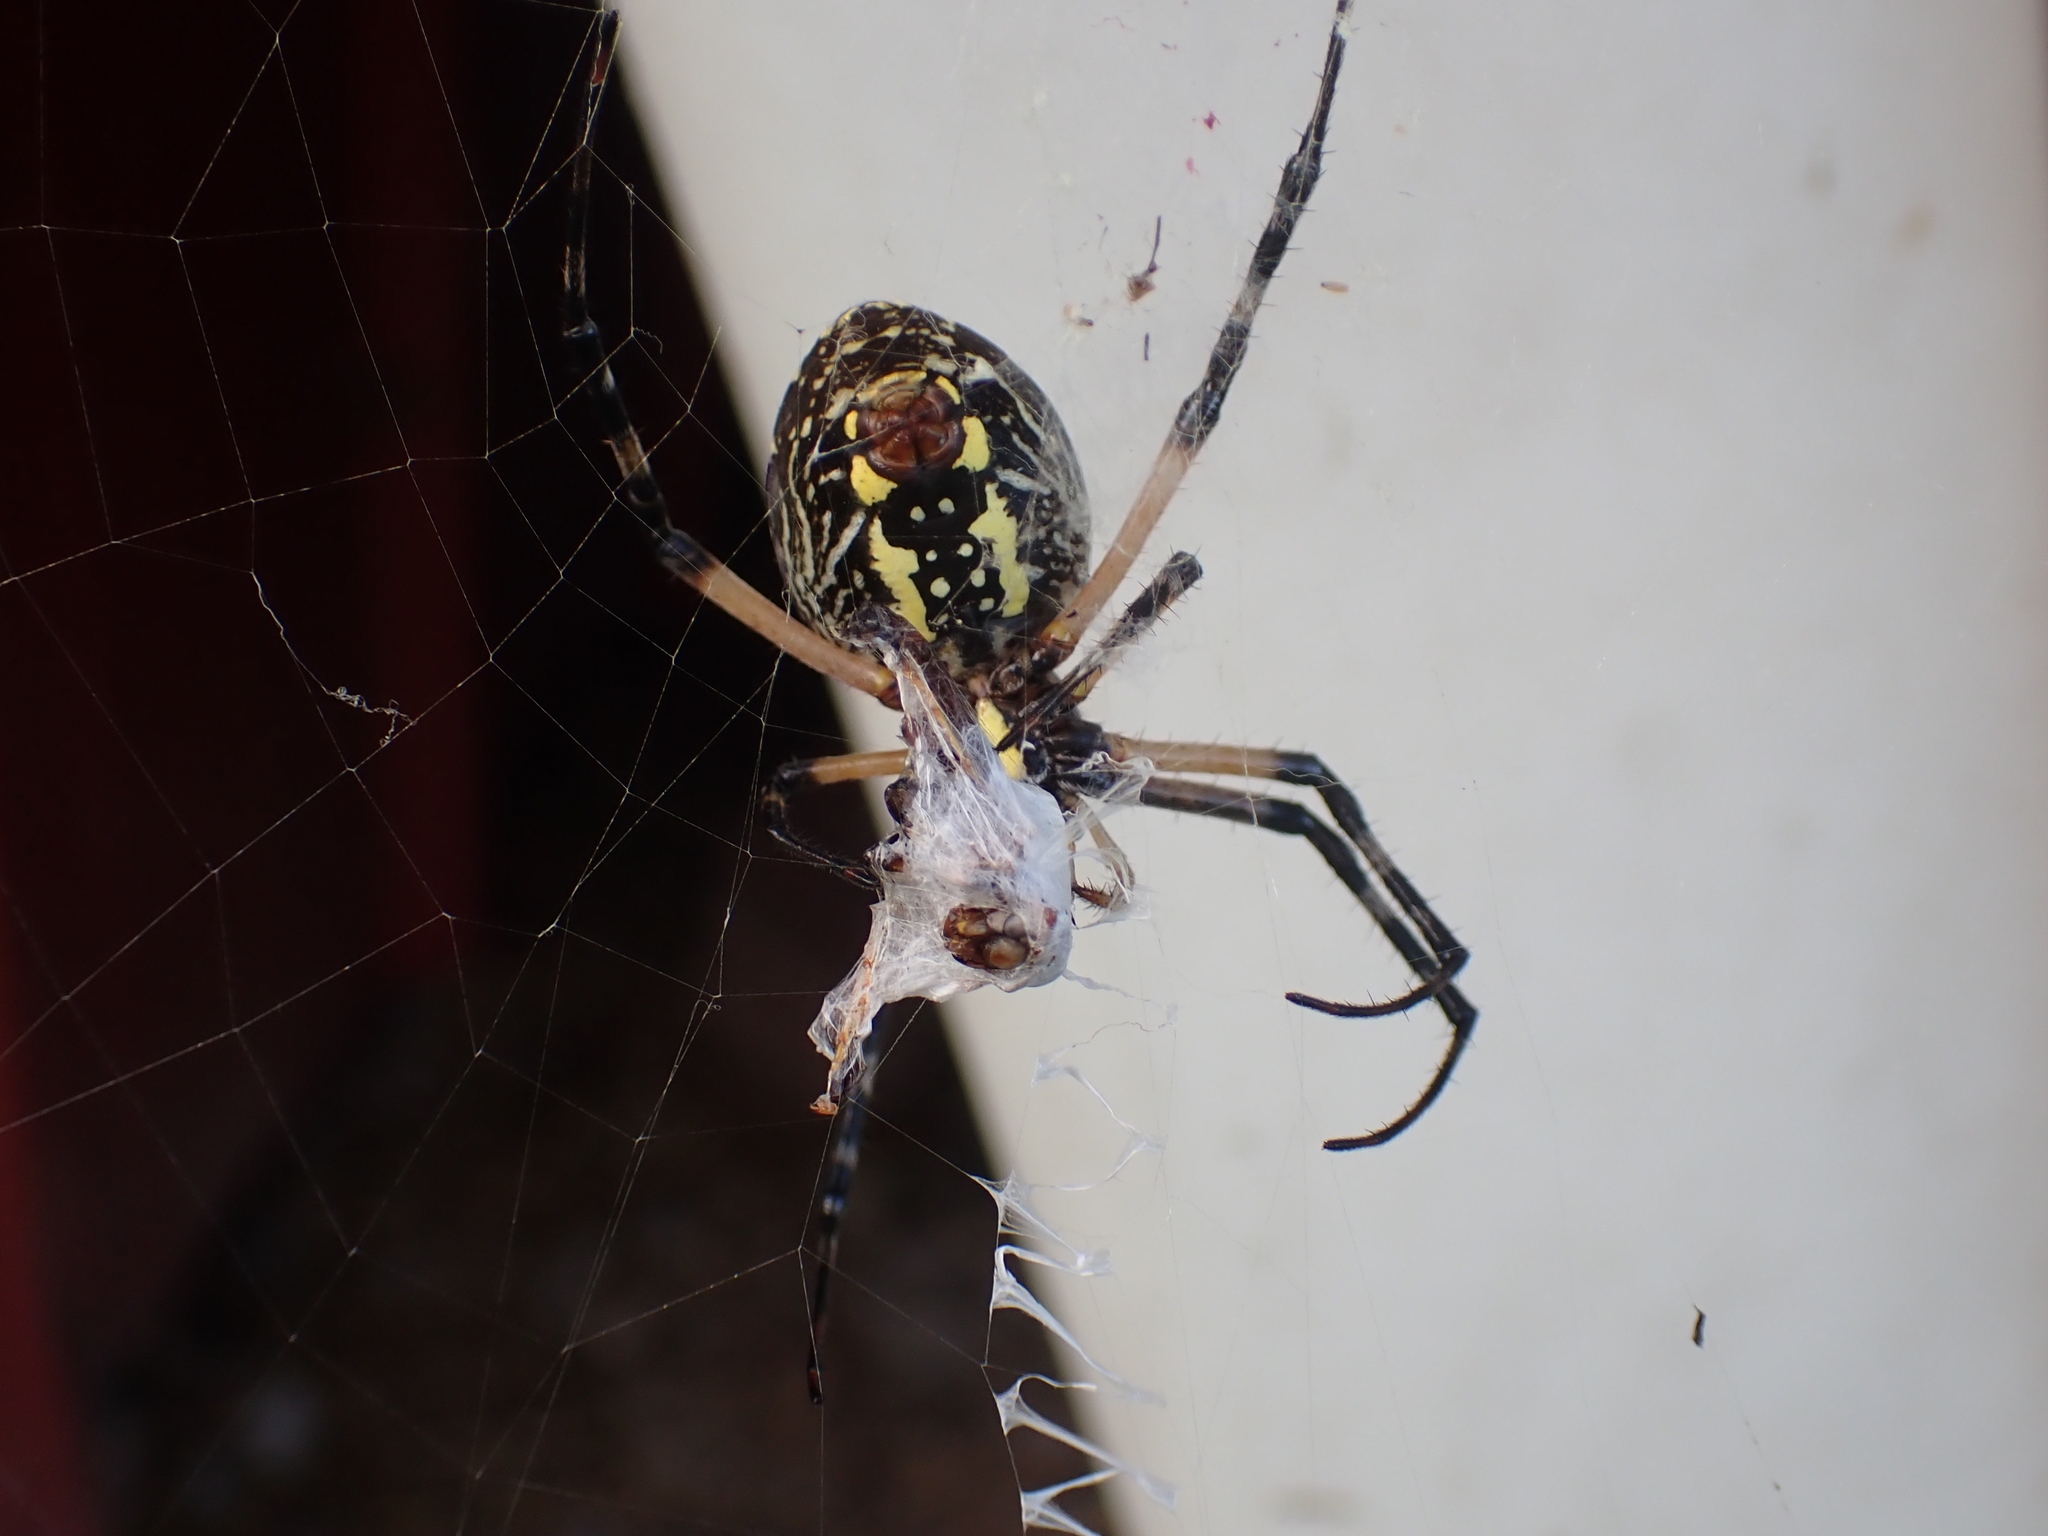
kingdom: Animalia
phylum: Arthropoda
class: Arachnida
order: Araneae
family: Araneidae
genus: Argiope
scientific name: Argiope aurantia
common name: Orb weavers
